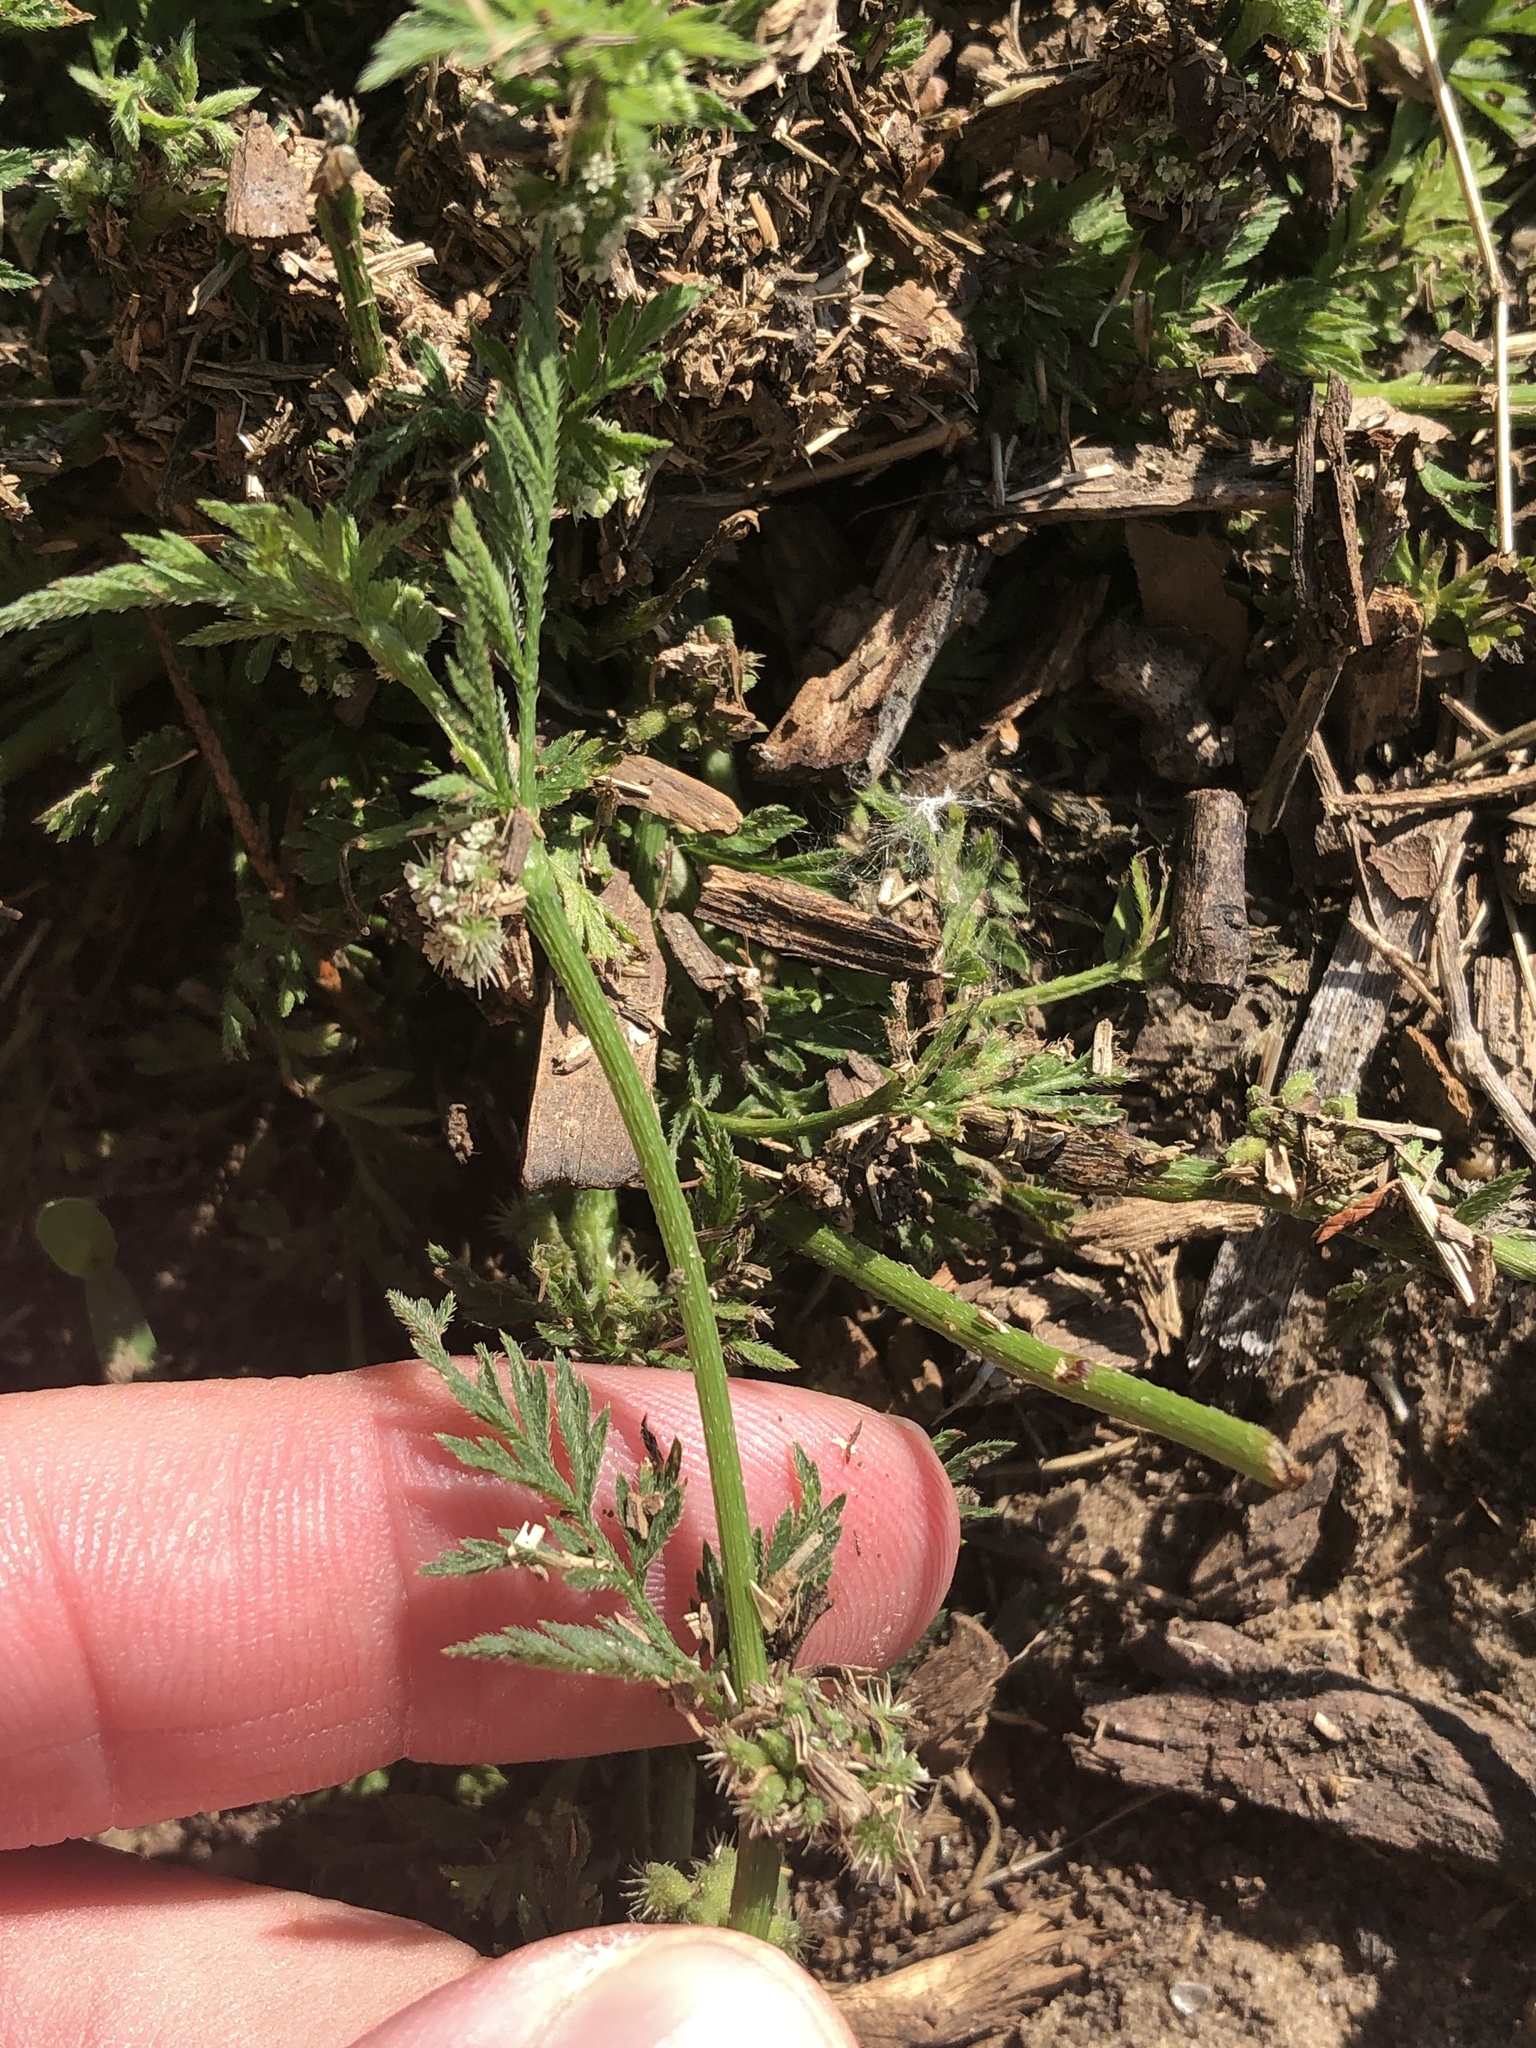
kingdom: Plantae
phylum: Tracheophyta
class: Magnoliopsida
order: Apiales
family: Apiaceae
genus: Torilis
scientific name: Torilis nodosa
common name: Knotted hedge-parsley
